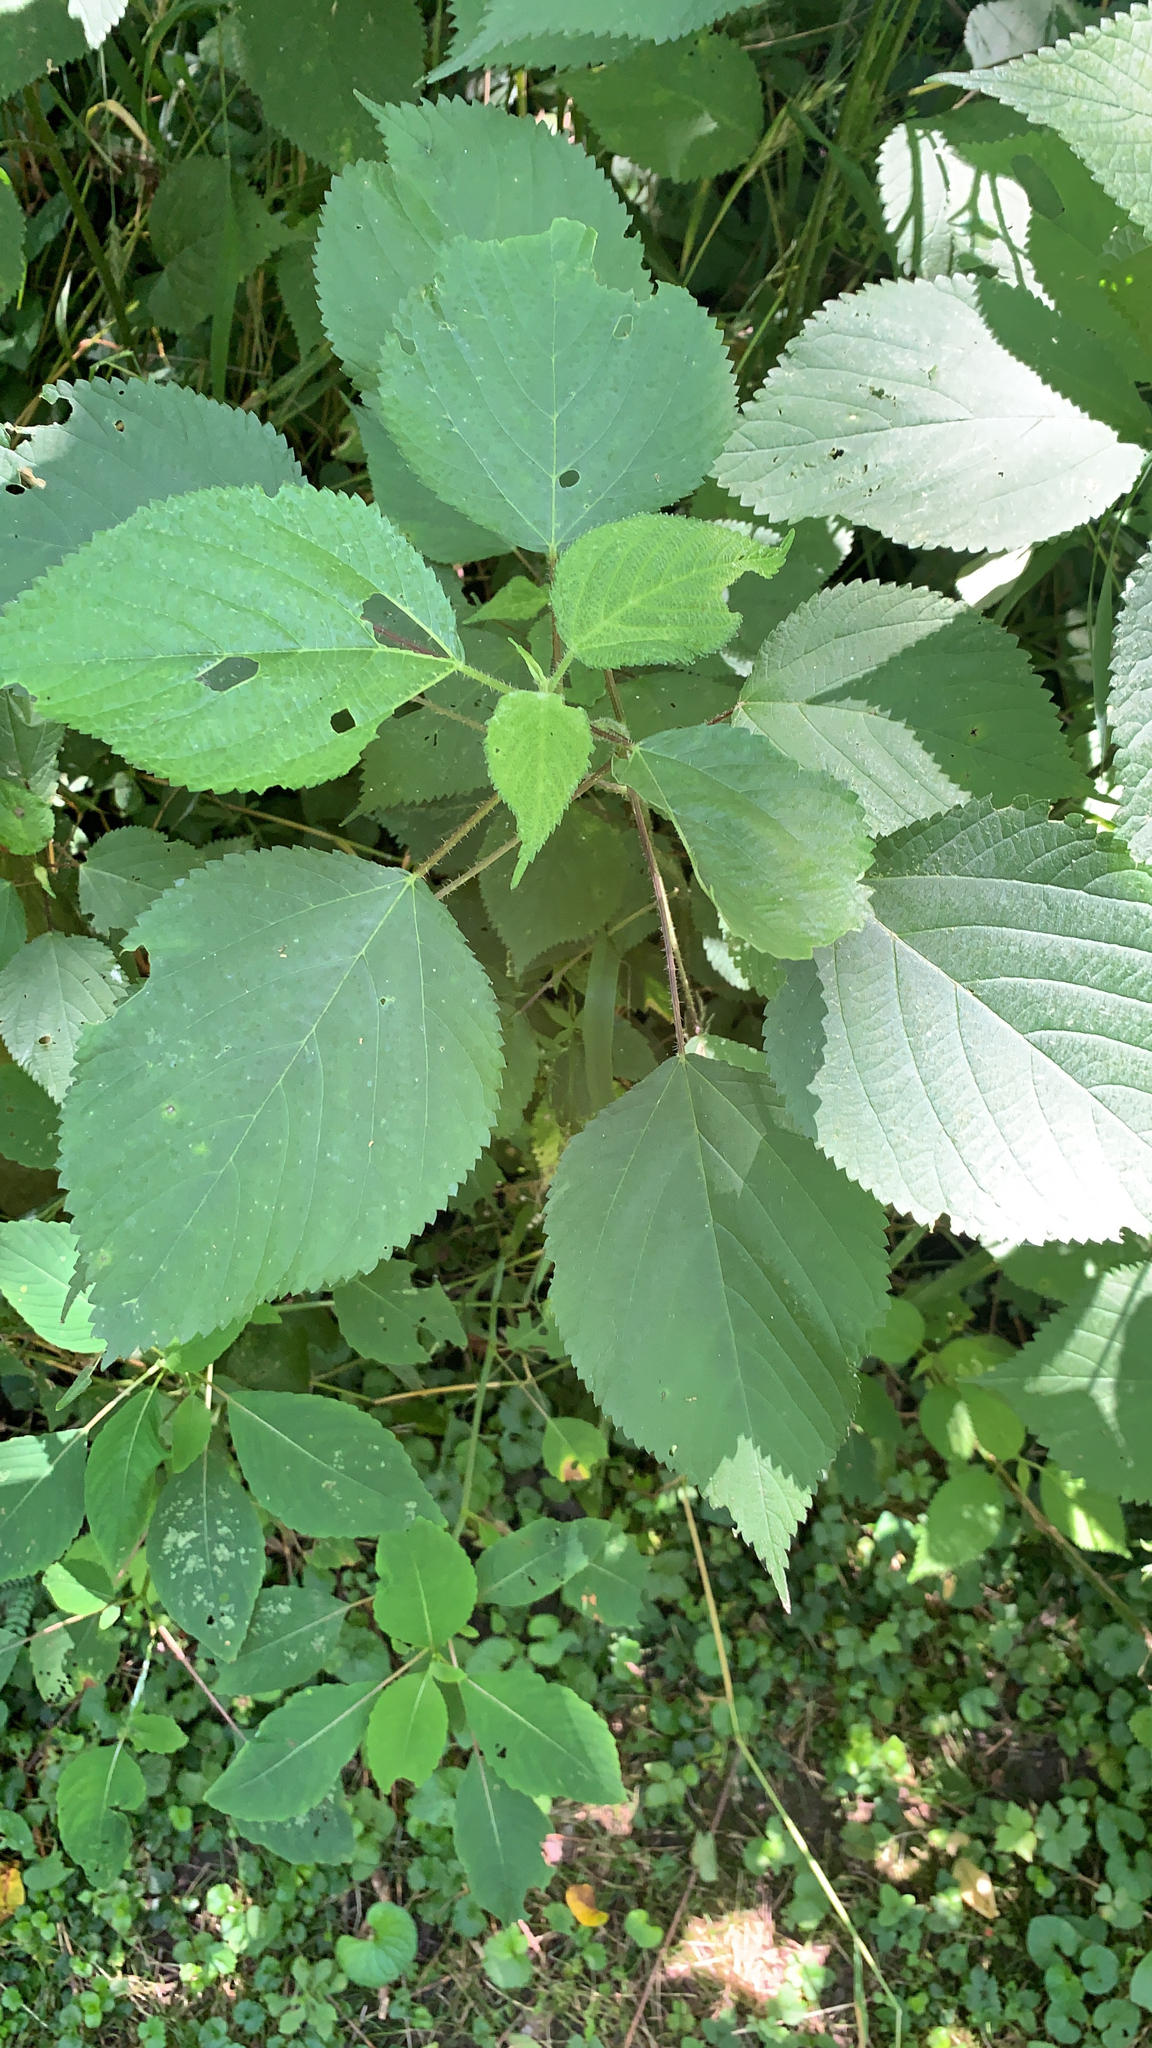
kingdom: Plantae
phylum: Tracheophyta
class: Magnoliopsida
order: Rosales
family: Urticaceae
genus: Laportea
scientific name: Laportea canadensis
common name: Canada nettle
